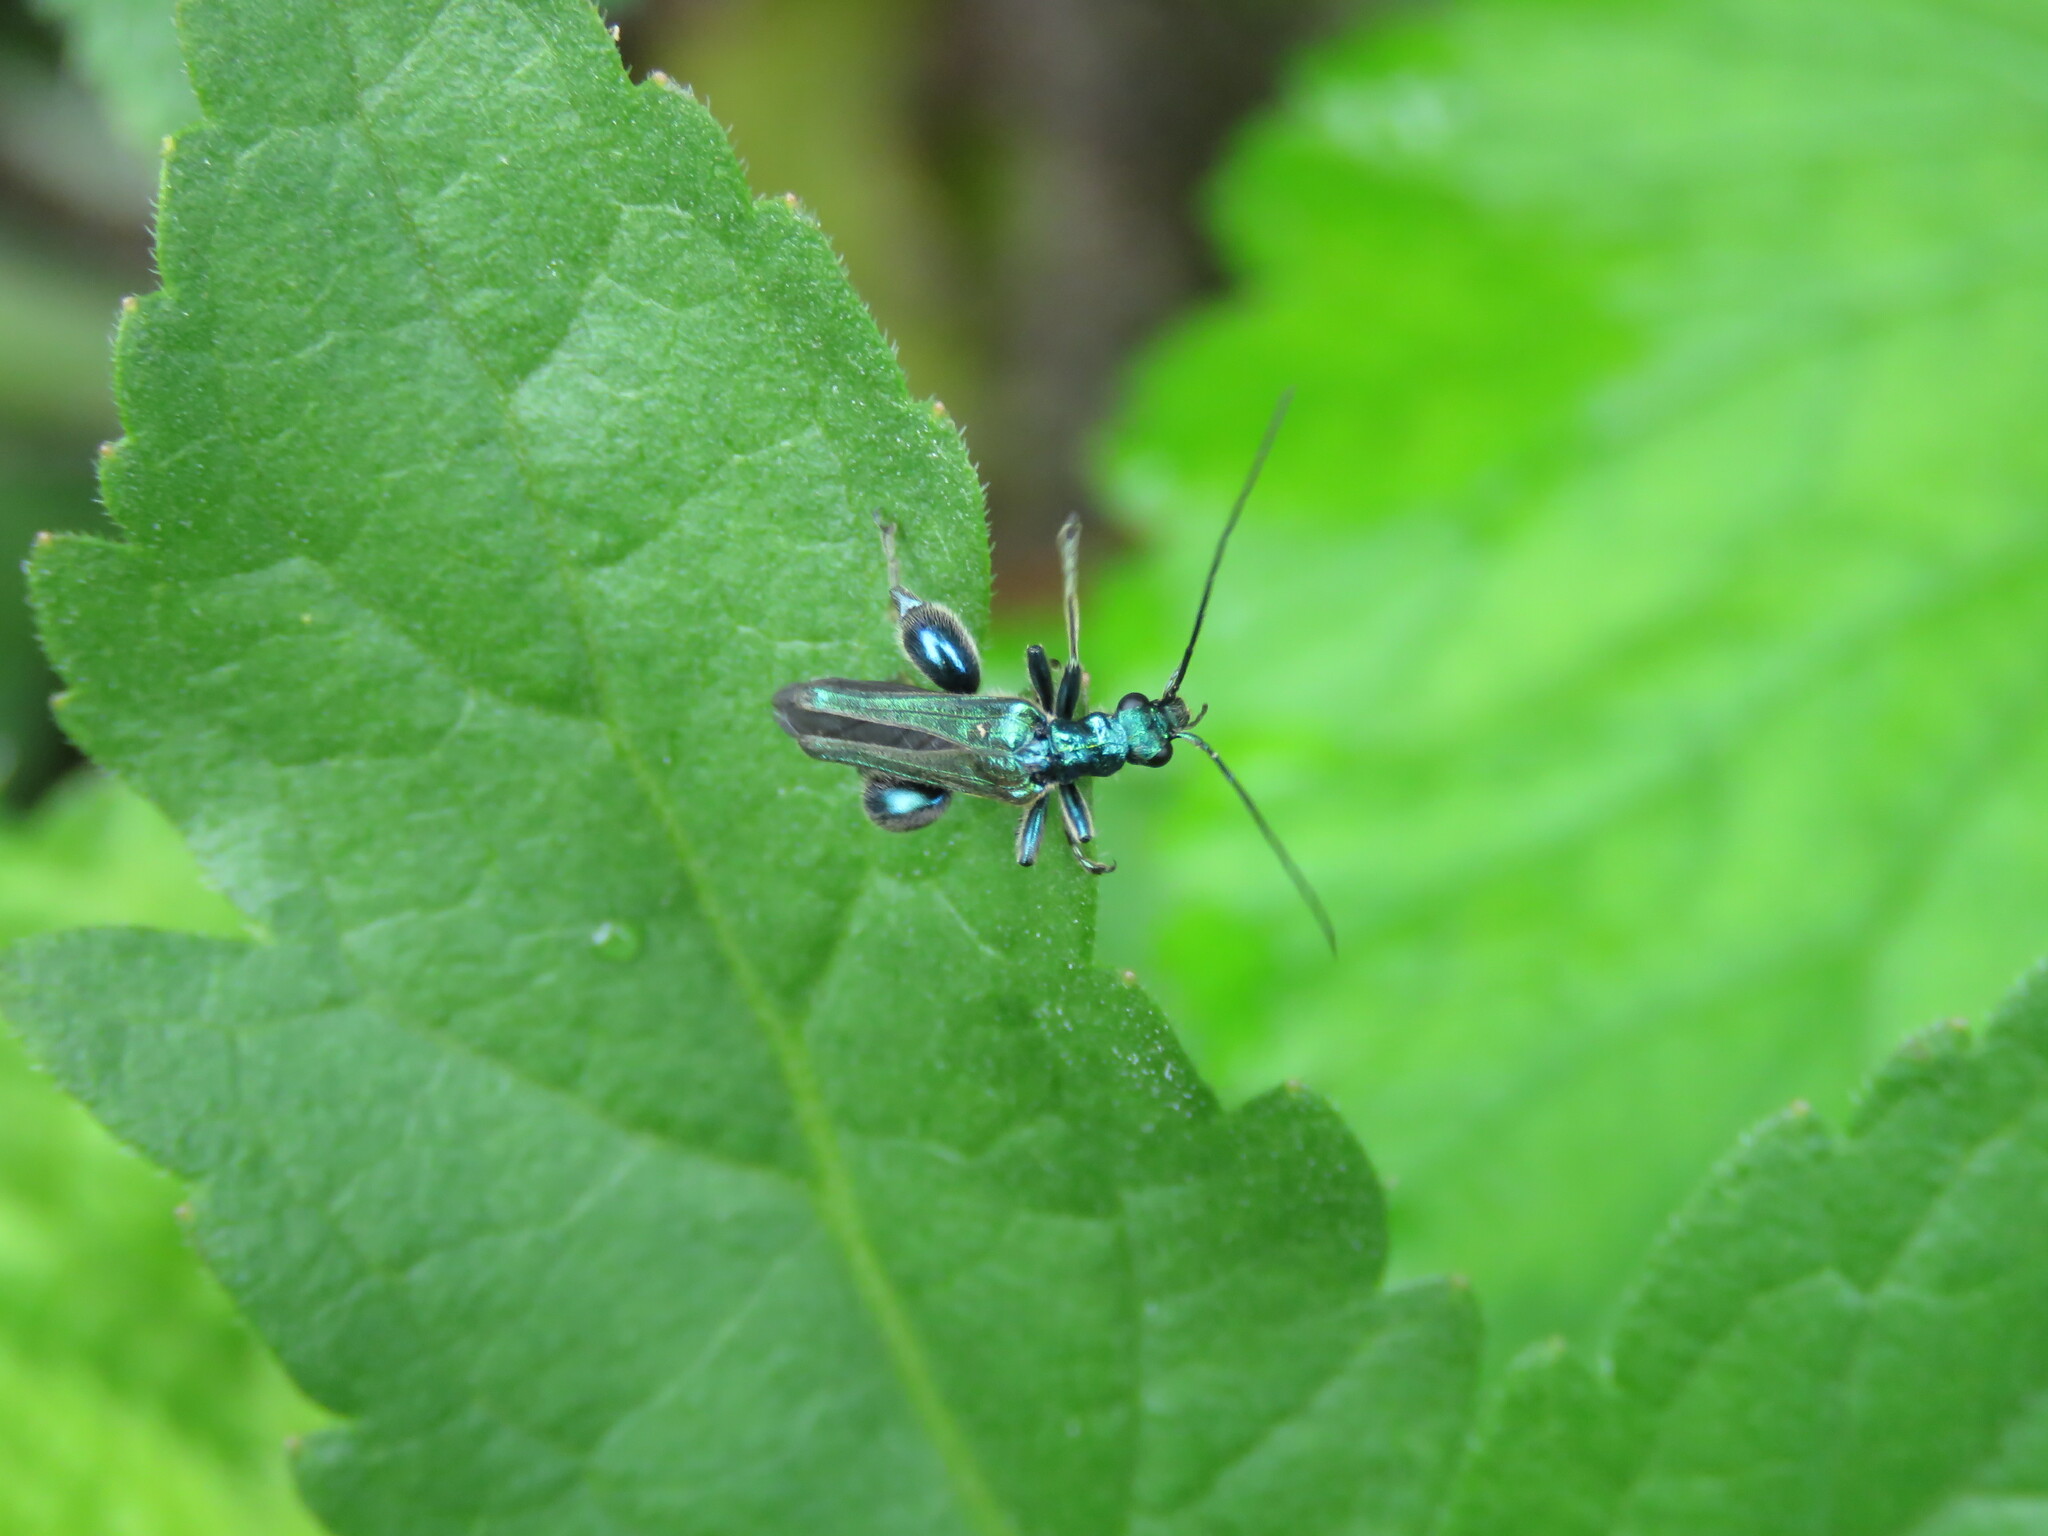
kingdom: Animalia
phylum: Arthropoda
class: Insecta
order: Coleoptera
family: Oedemeridae
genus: Oedemera
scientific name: Oedemera nobilis
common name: Swollen-thighed beetle
